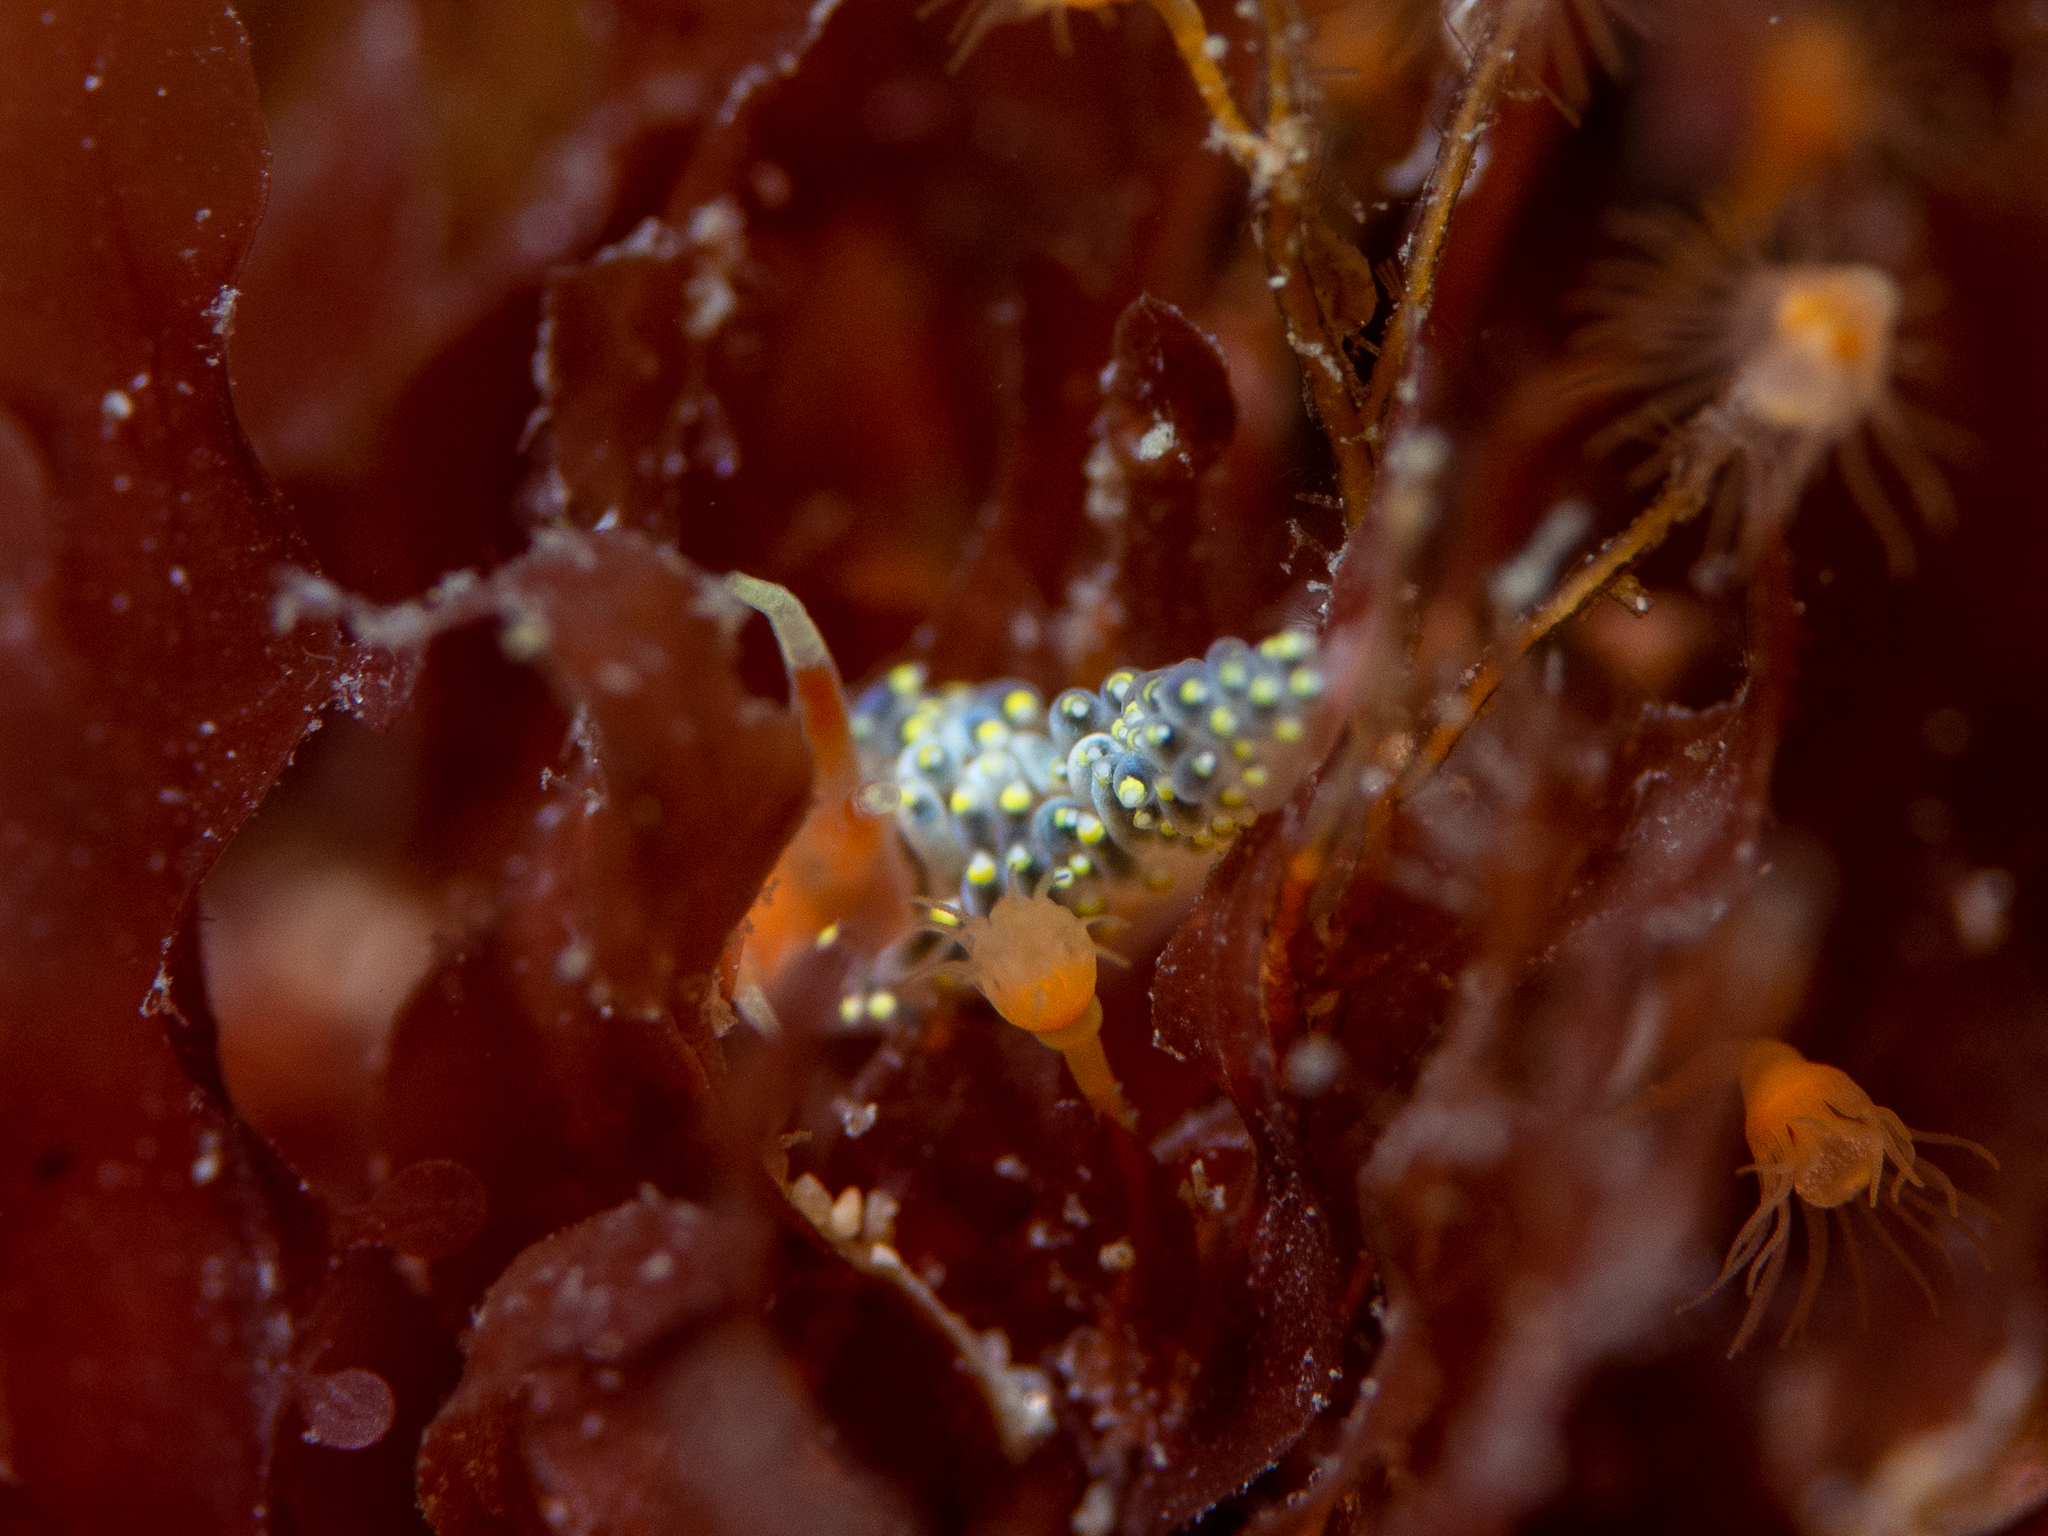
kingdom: Animalia
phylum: Mollusca
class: Gastropoda
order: Nudibranchia
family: Trinchesiidae
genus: Trinchesia
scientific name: Trinchesia catachroma
